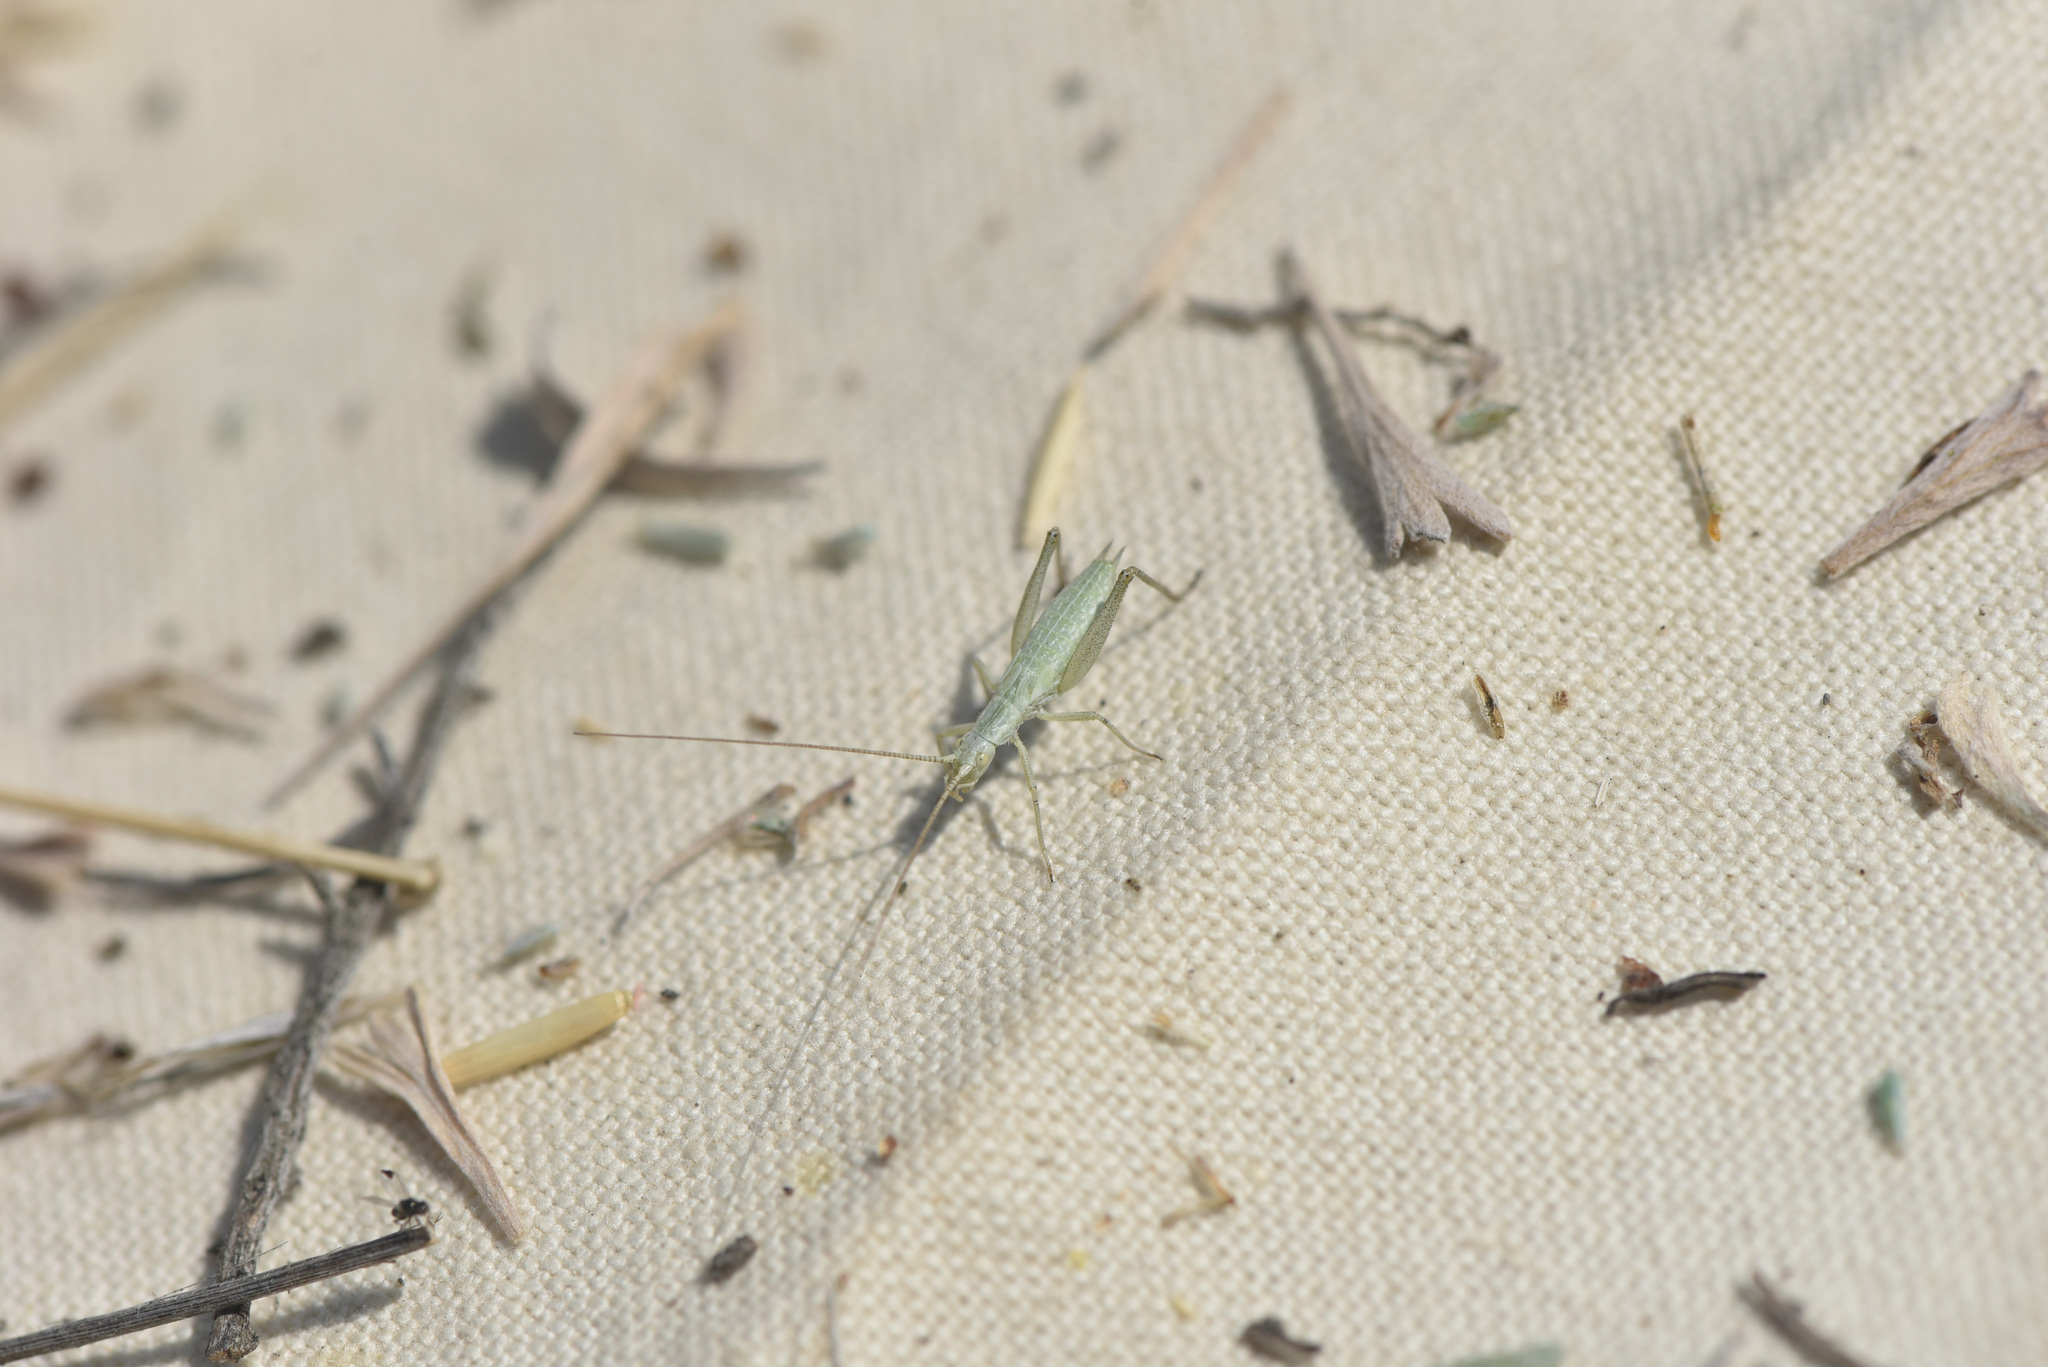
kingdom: Animalia
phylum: Arthropoda
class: Insecta
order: Orthoptera
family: Gryllidae
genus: Oecanthus
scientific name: Oecanthus salvii
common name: Sage tree cricket
